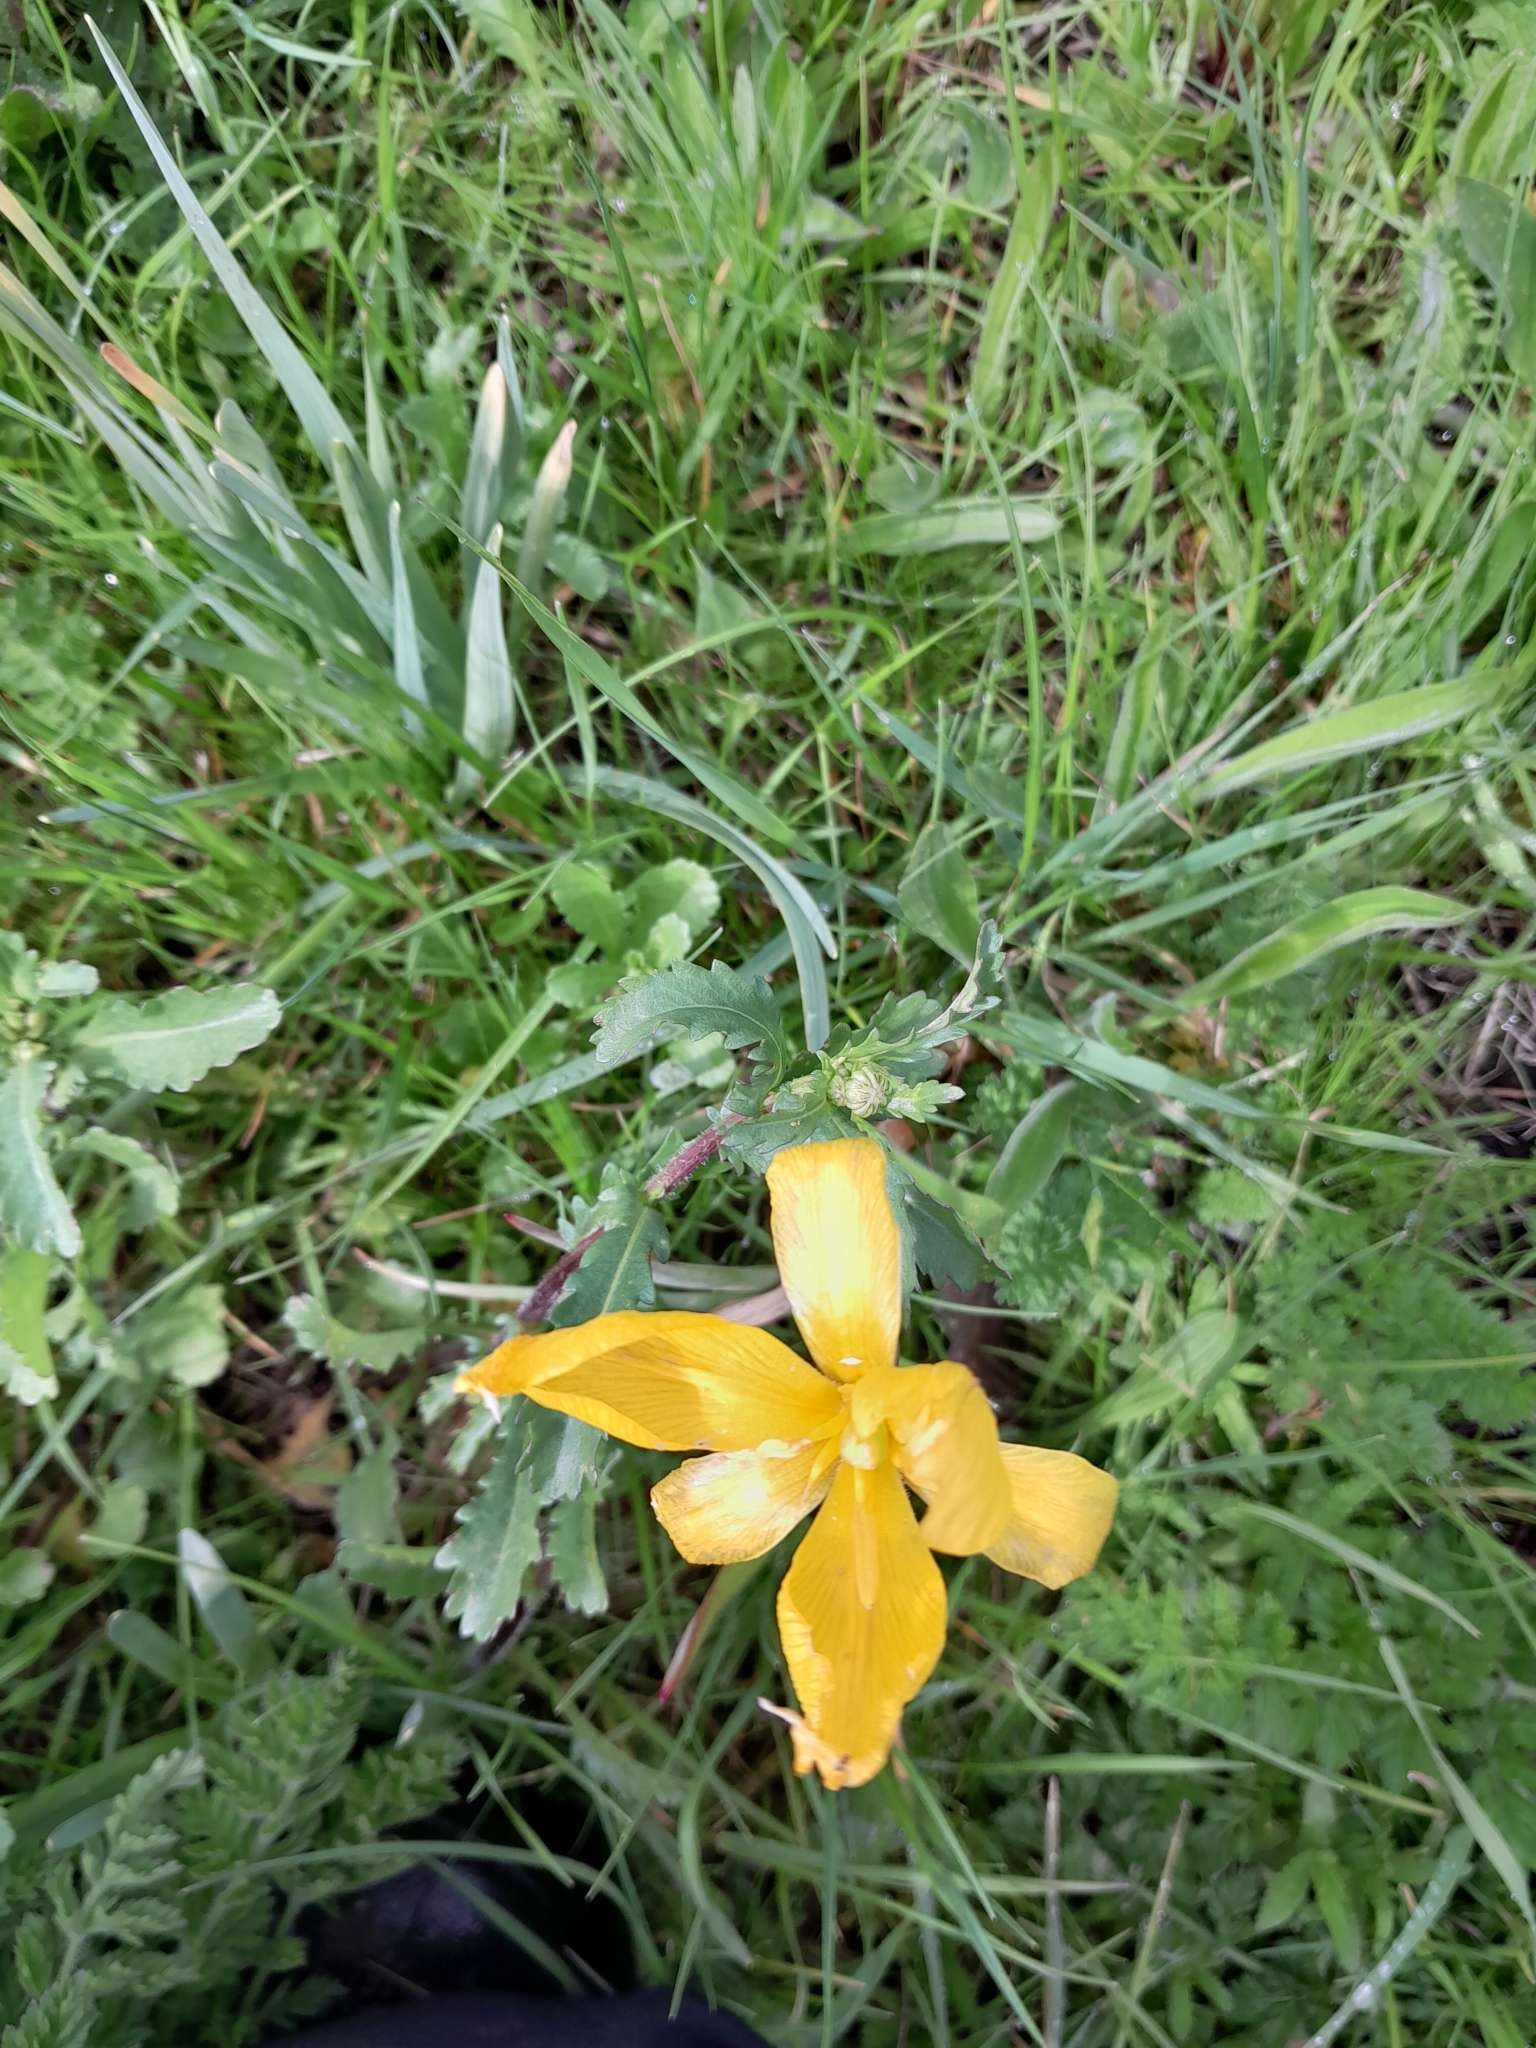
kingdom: Plantae
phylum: Tracheophyta
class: Liliopsida
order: Liliales
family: Liliaceae
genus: Tulipa
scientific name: Tulipa sylvestris
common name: Wild tulip
